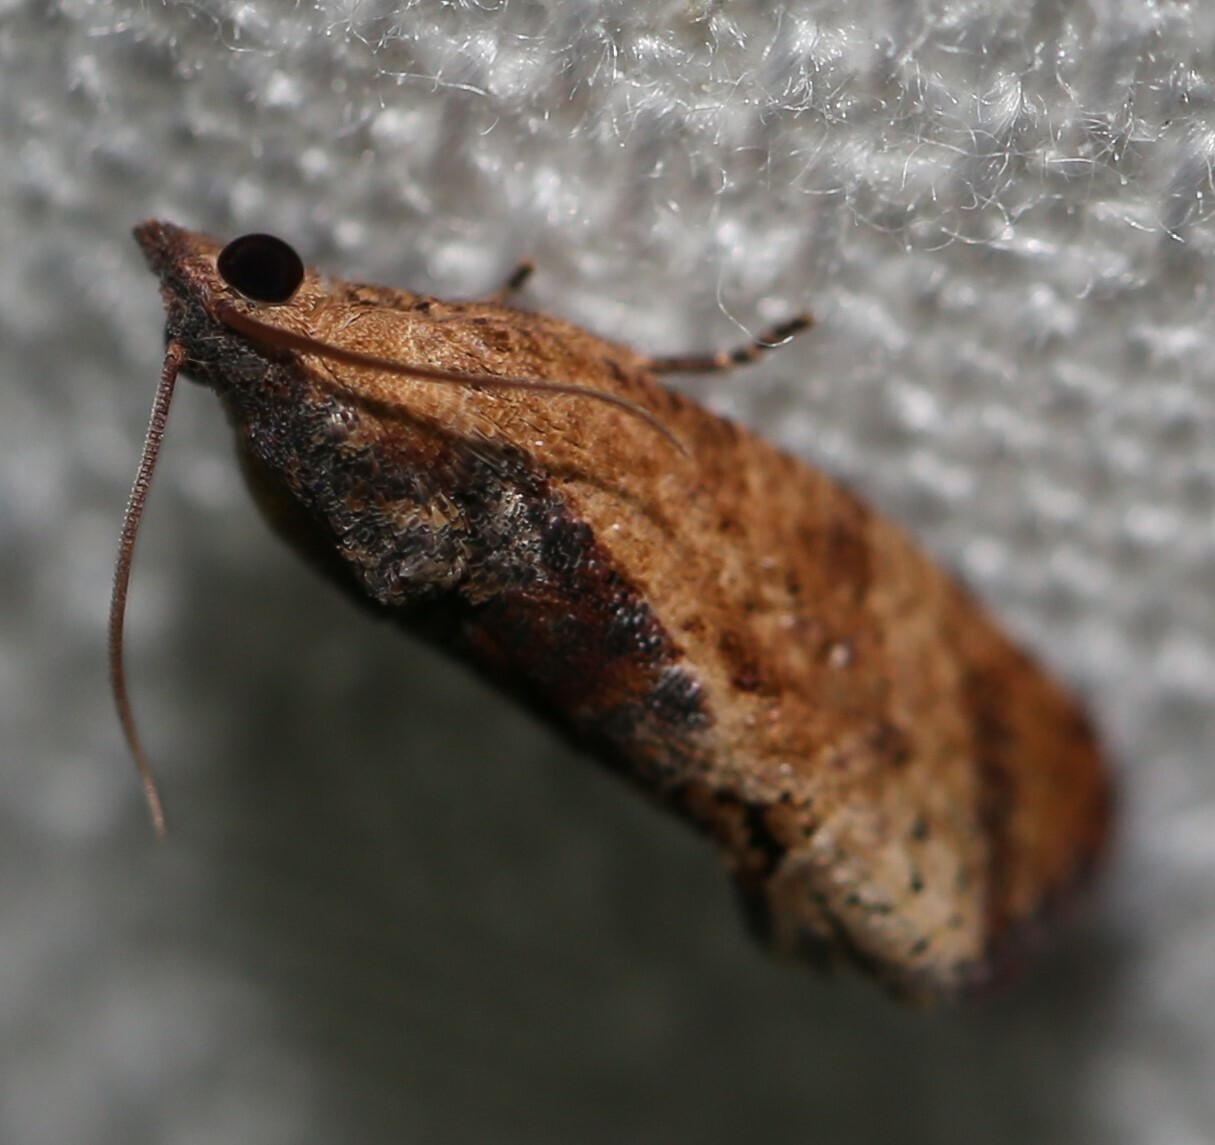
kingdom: Animalia
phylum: Arthropoda
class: Insecta
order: Lepidoptera
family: Tortricidae
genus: Cryptophlebia
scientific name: Cryptophlebia ombrodelta
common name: Litchi fruit moth
